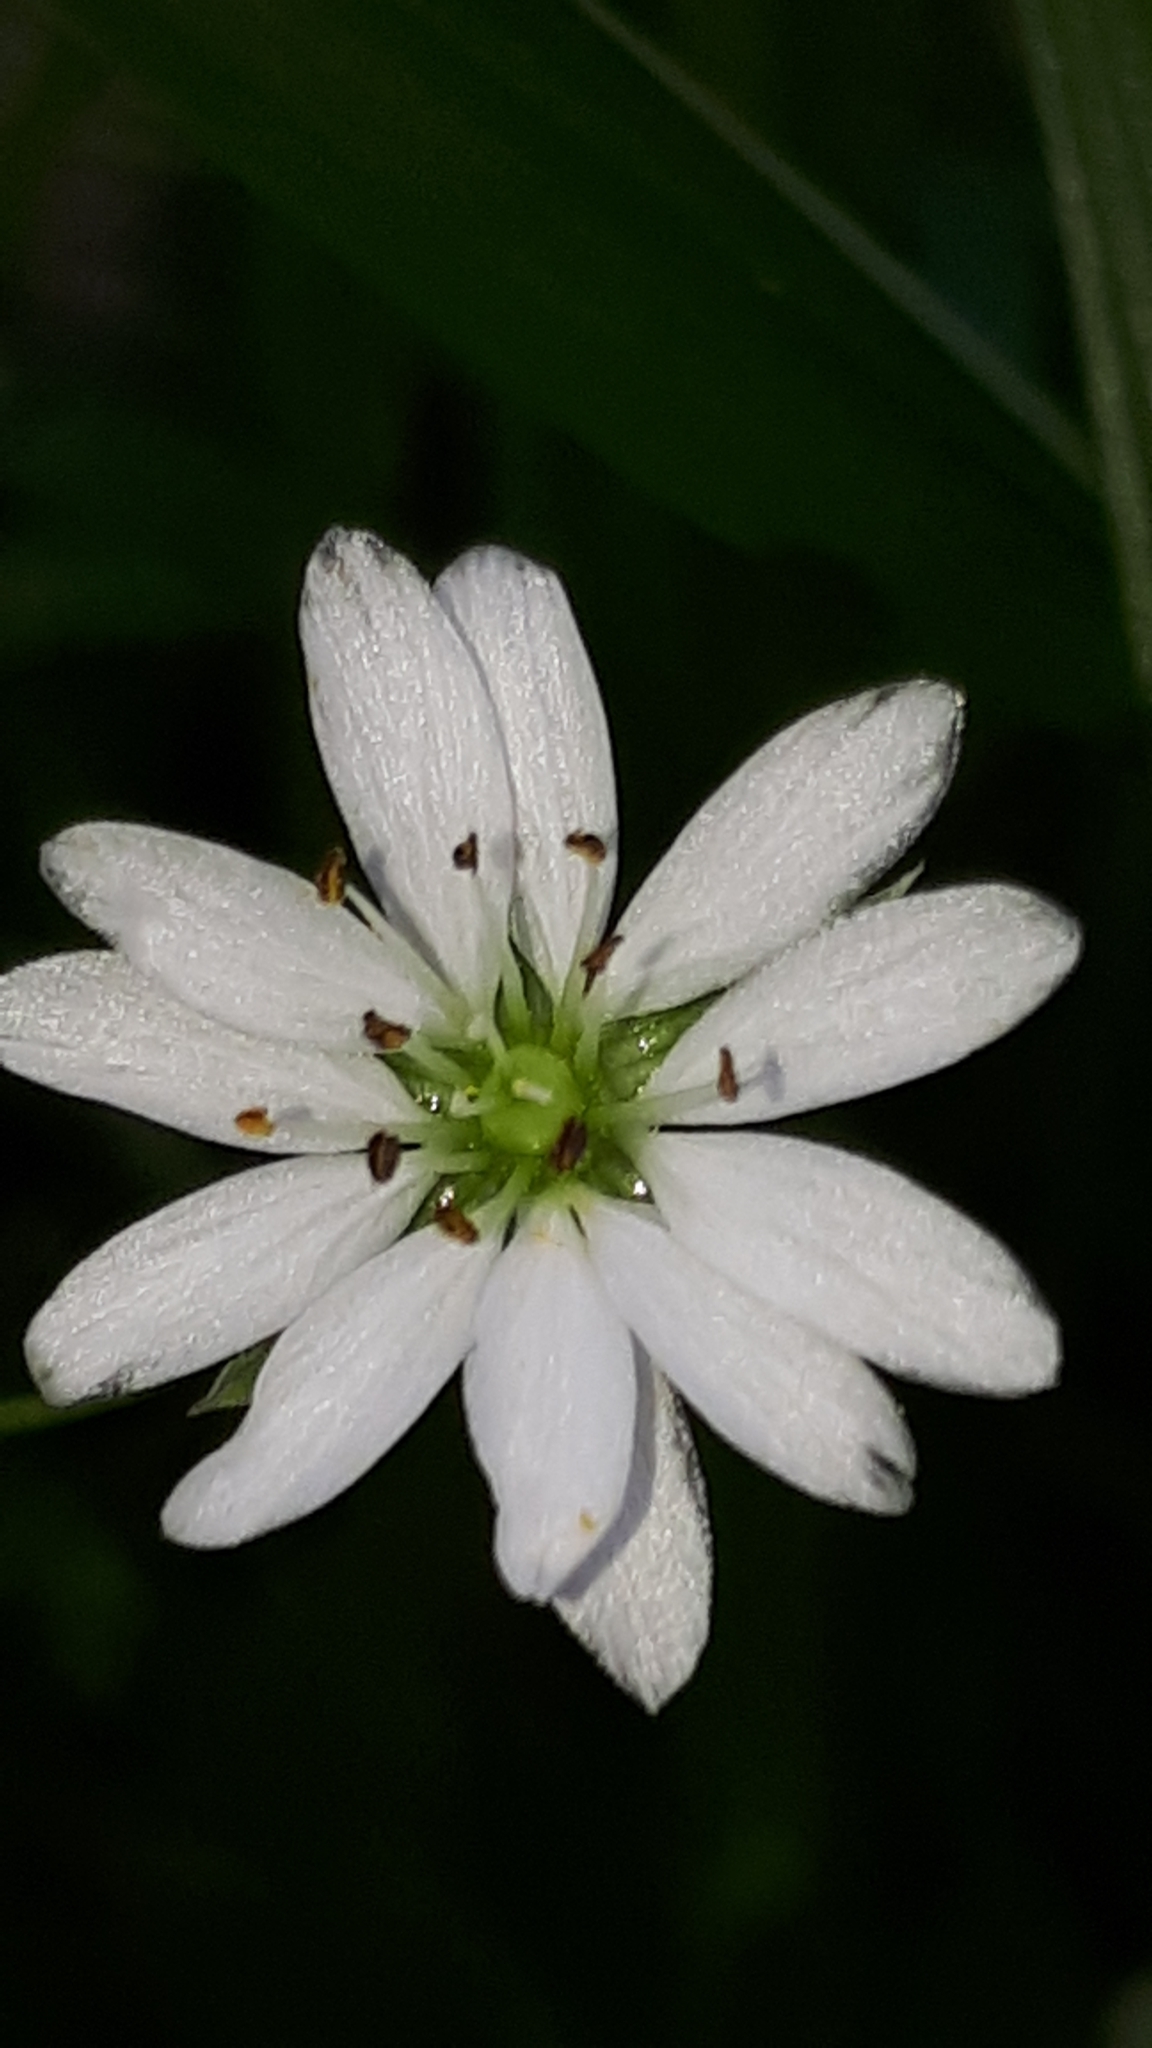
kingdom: Plantae
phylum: Tracheophyta
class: Magnoliopsida
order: Caryophyllales
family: Caryophyllaceae
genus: Stellaria
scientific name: Stellaria graminea
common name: Grass-like starwort
